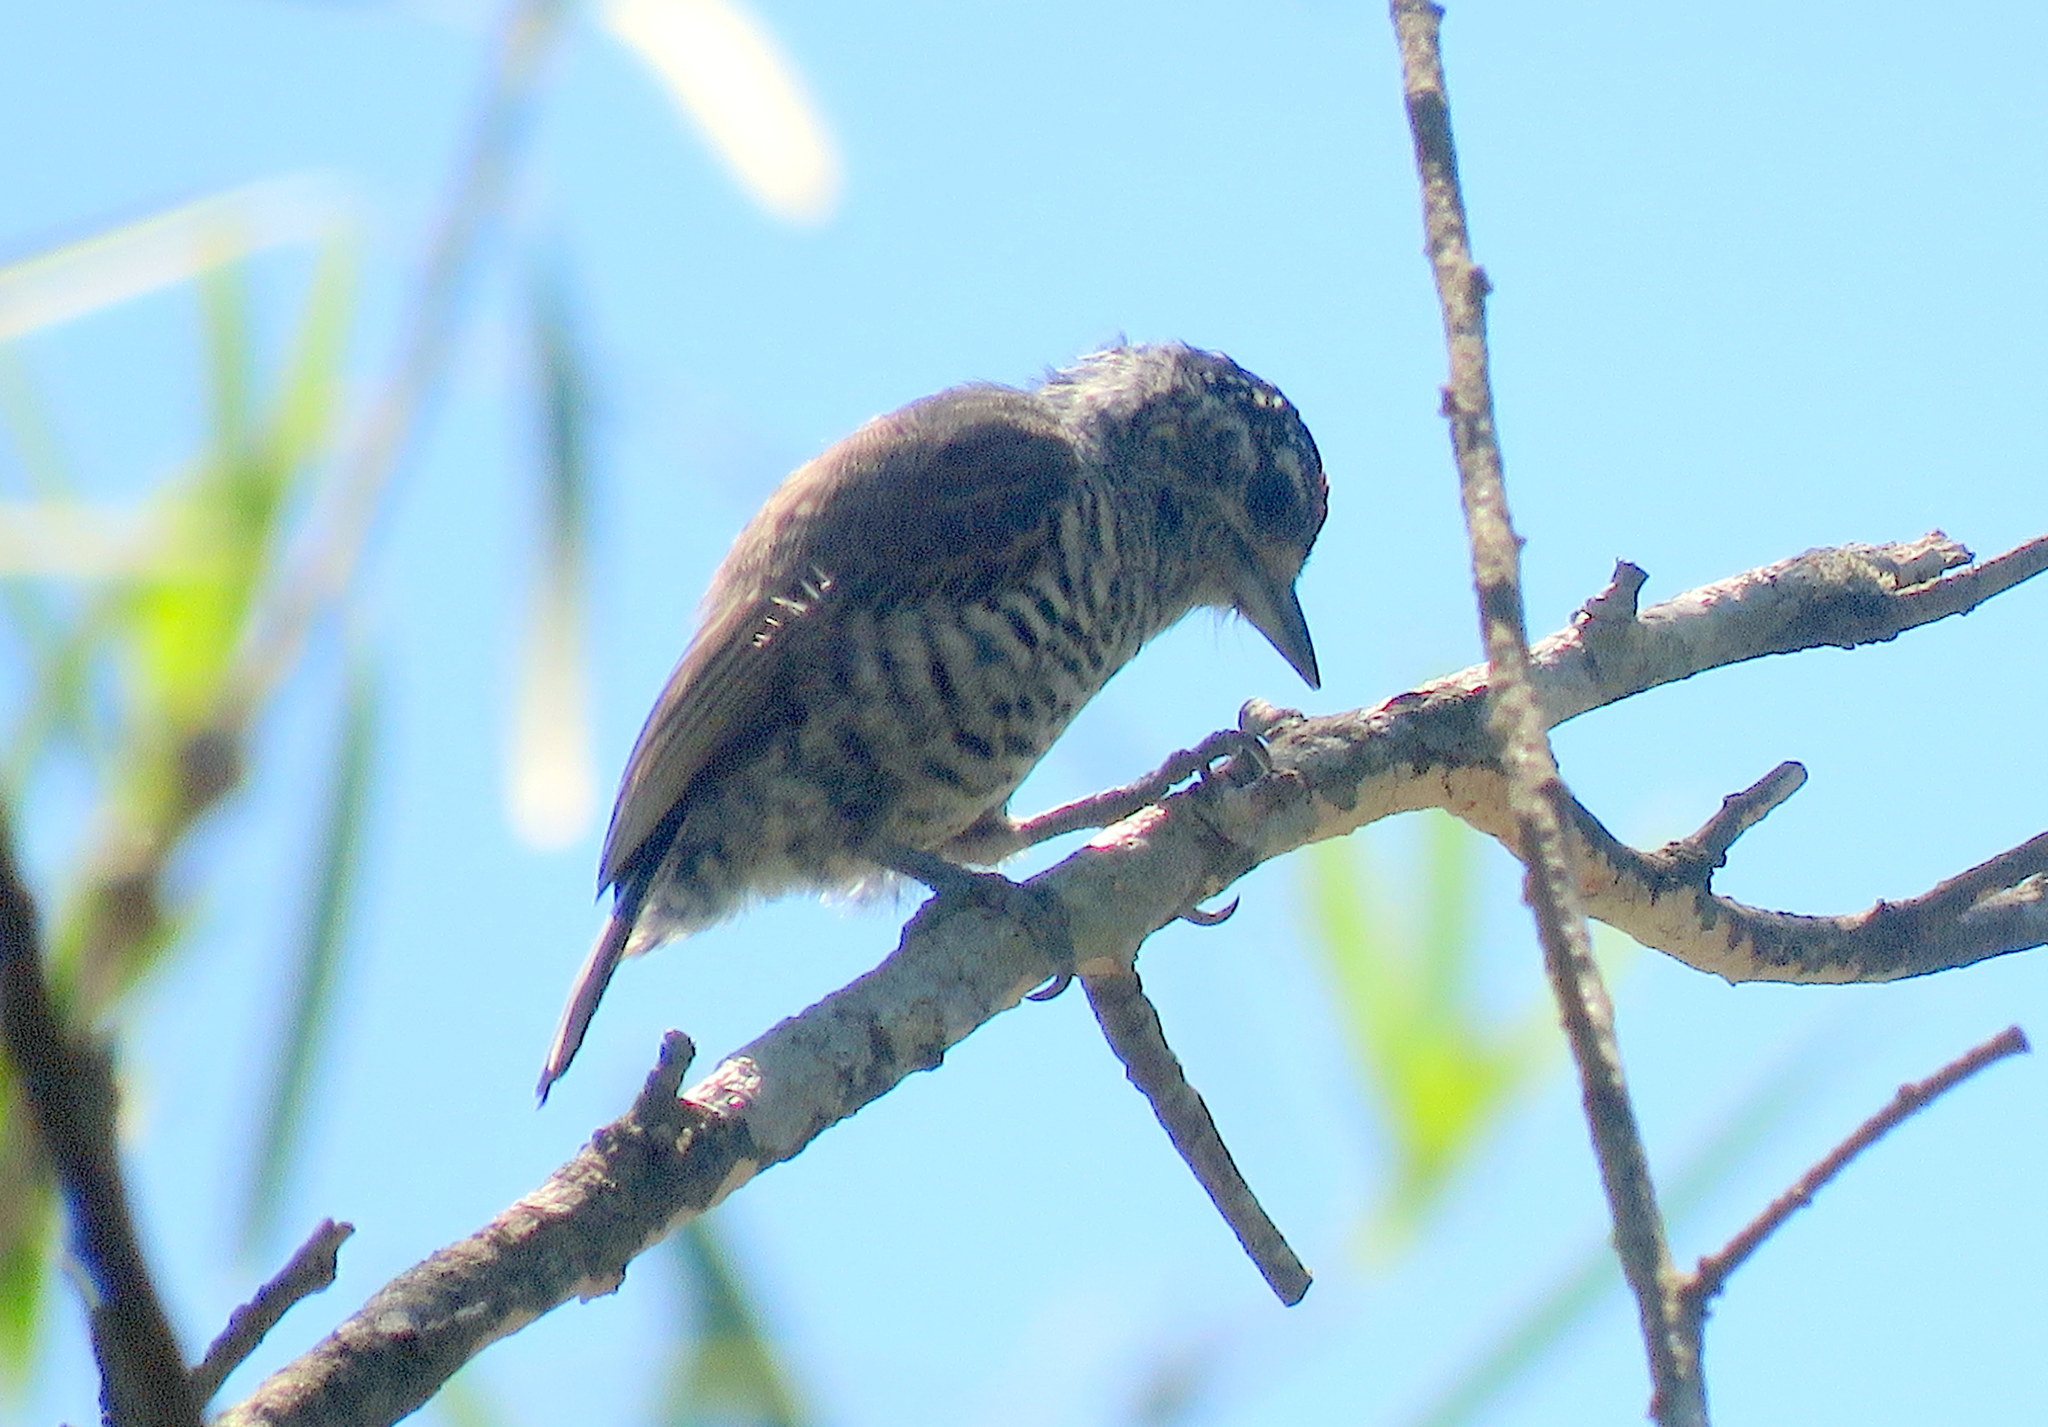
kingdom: Animalia
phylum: Chordata
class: Aves
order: Piciformes
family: Picidae
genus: Picumnus
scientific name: Picumnus cirratus
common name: White-barred piculet
